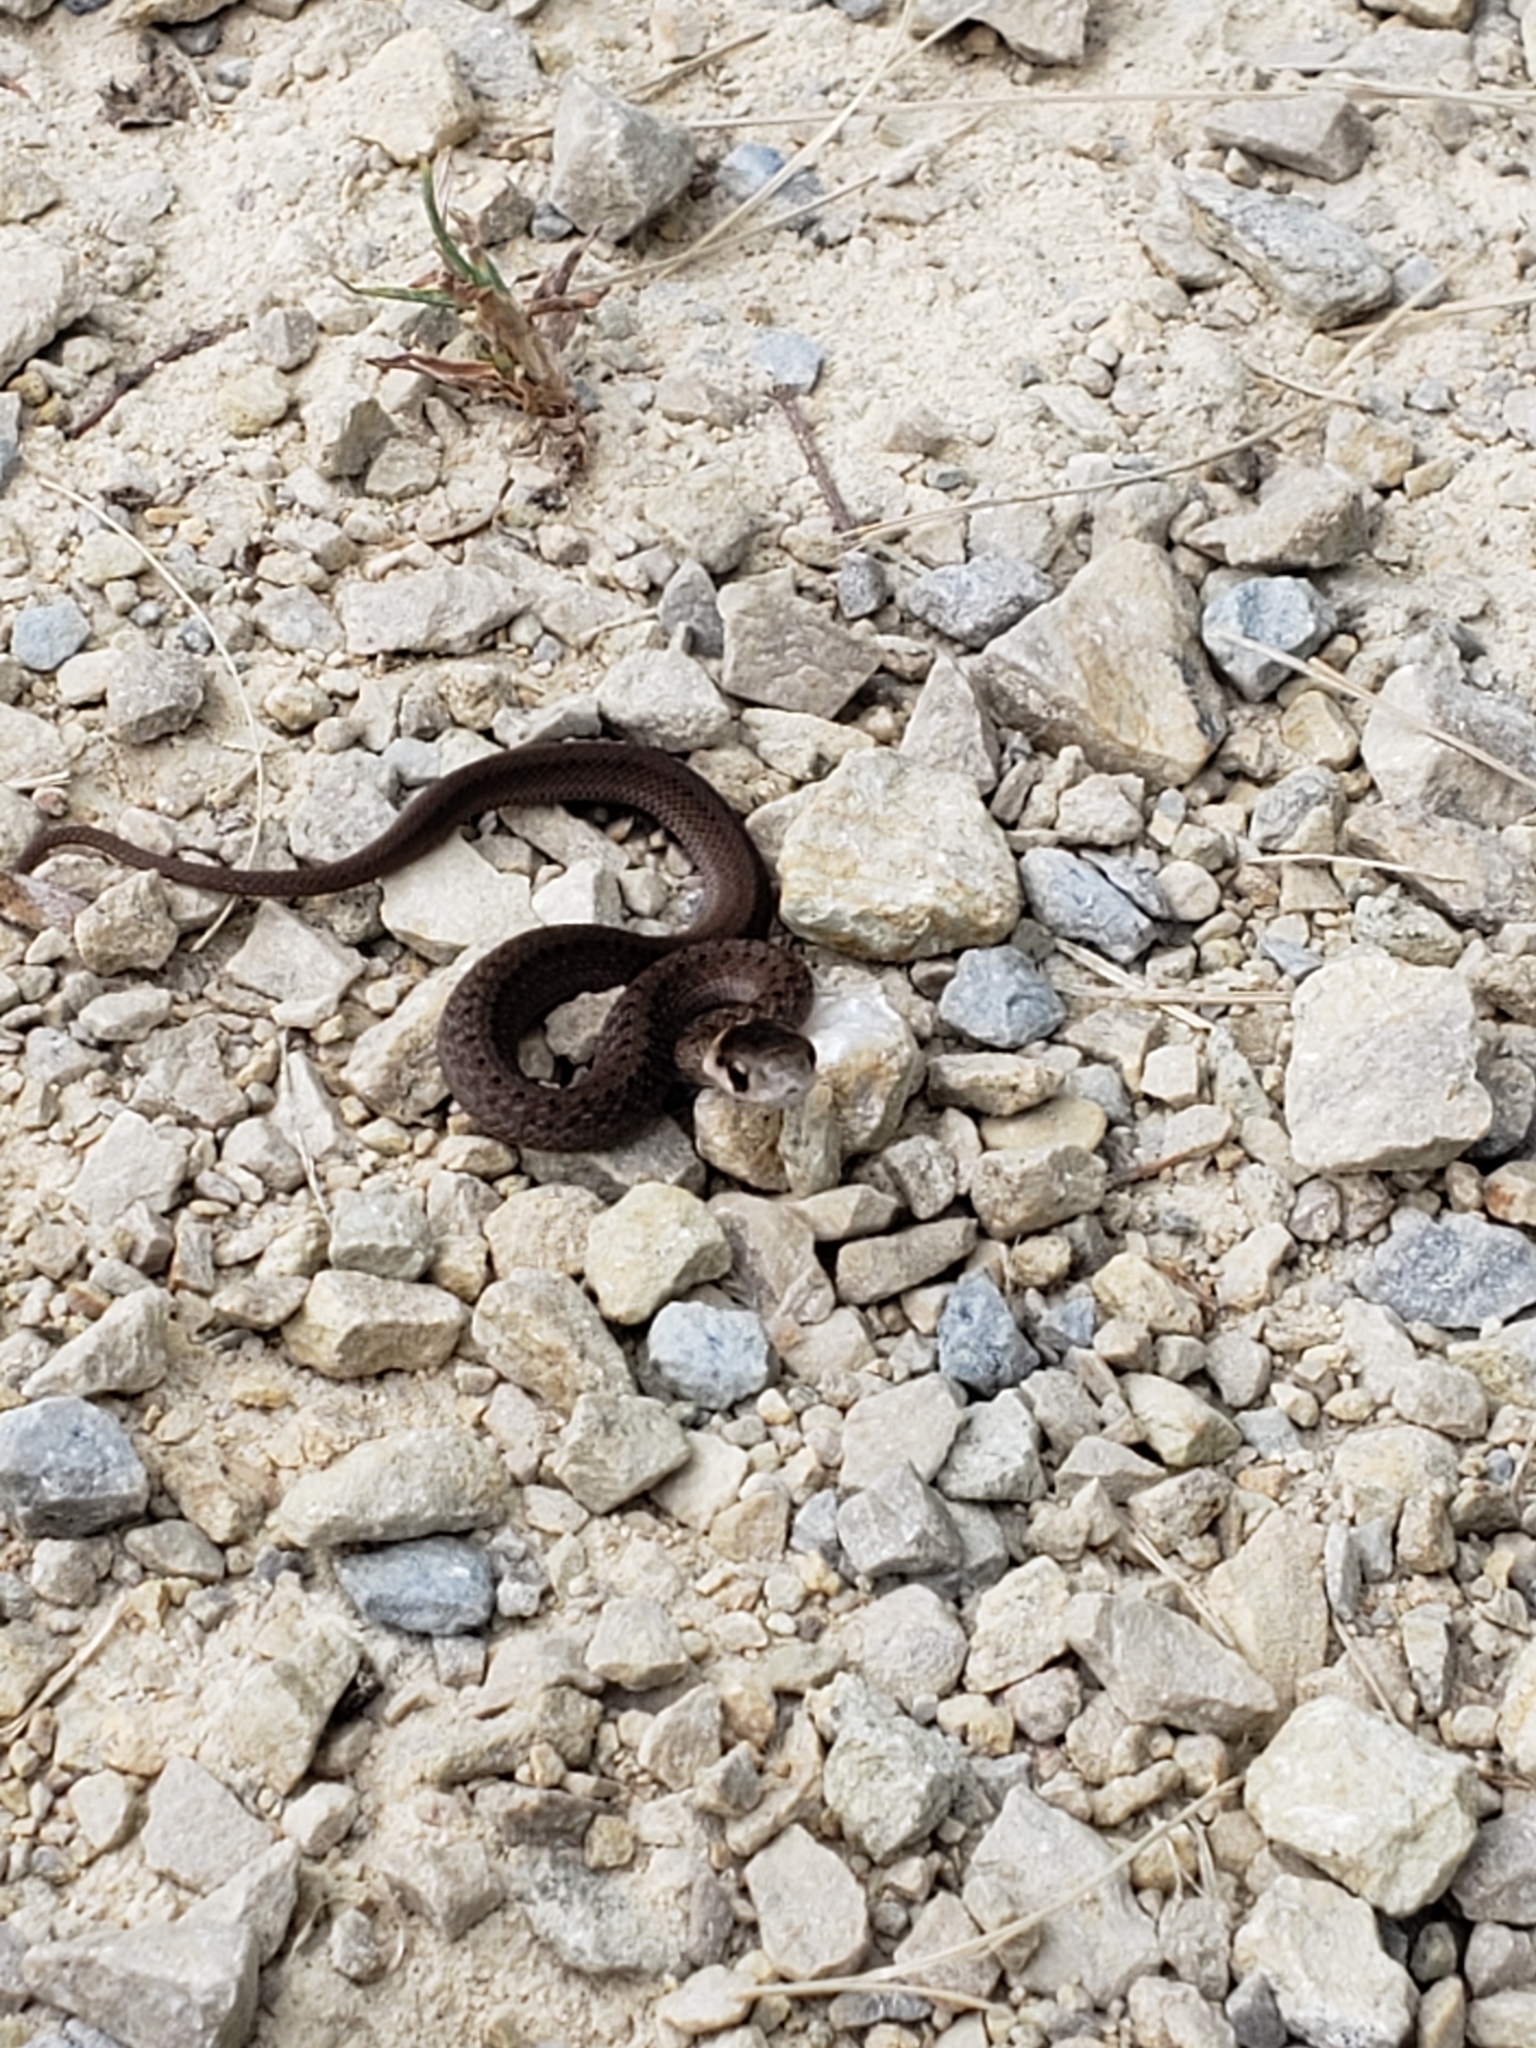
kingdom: Animalia
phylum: Chordata
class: Squamata
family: Colubridae
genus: Storeria
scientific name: Storeria dekayi
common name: (dekay’s) brown snake
